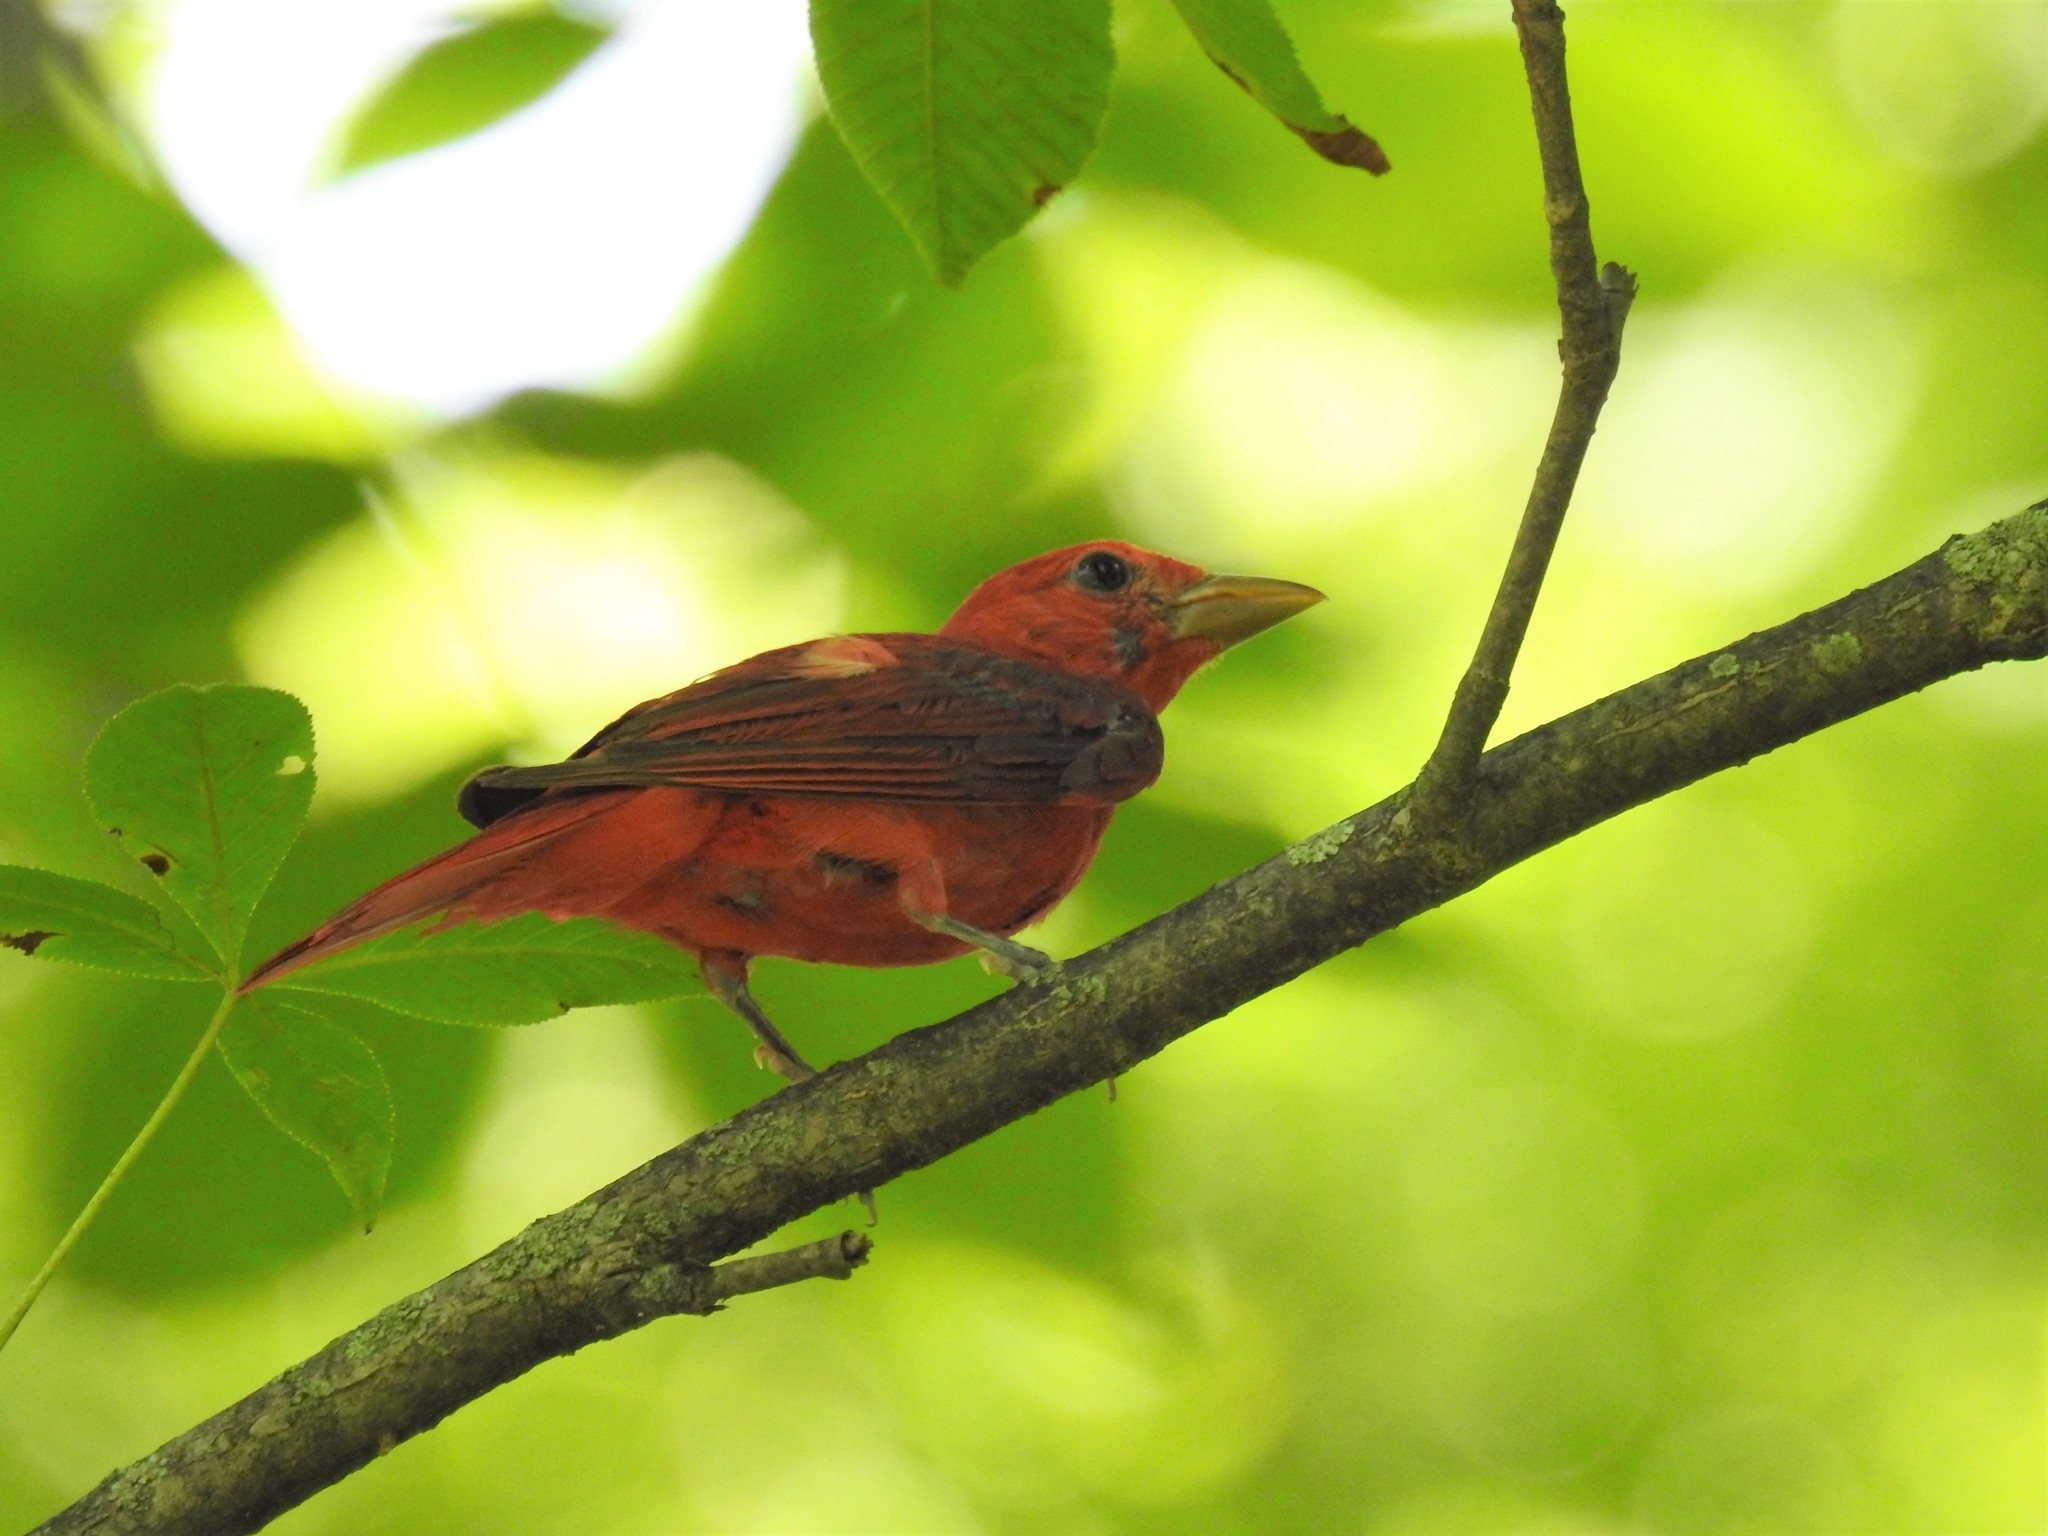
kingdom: Animalia
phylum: Chordata
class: Aves
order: Passeriformes
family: Cardinalidae
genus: Piranga
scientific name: Piranga rubra
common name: Summer tanager
